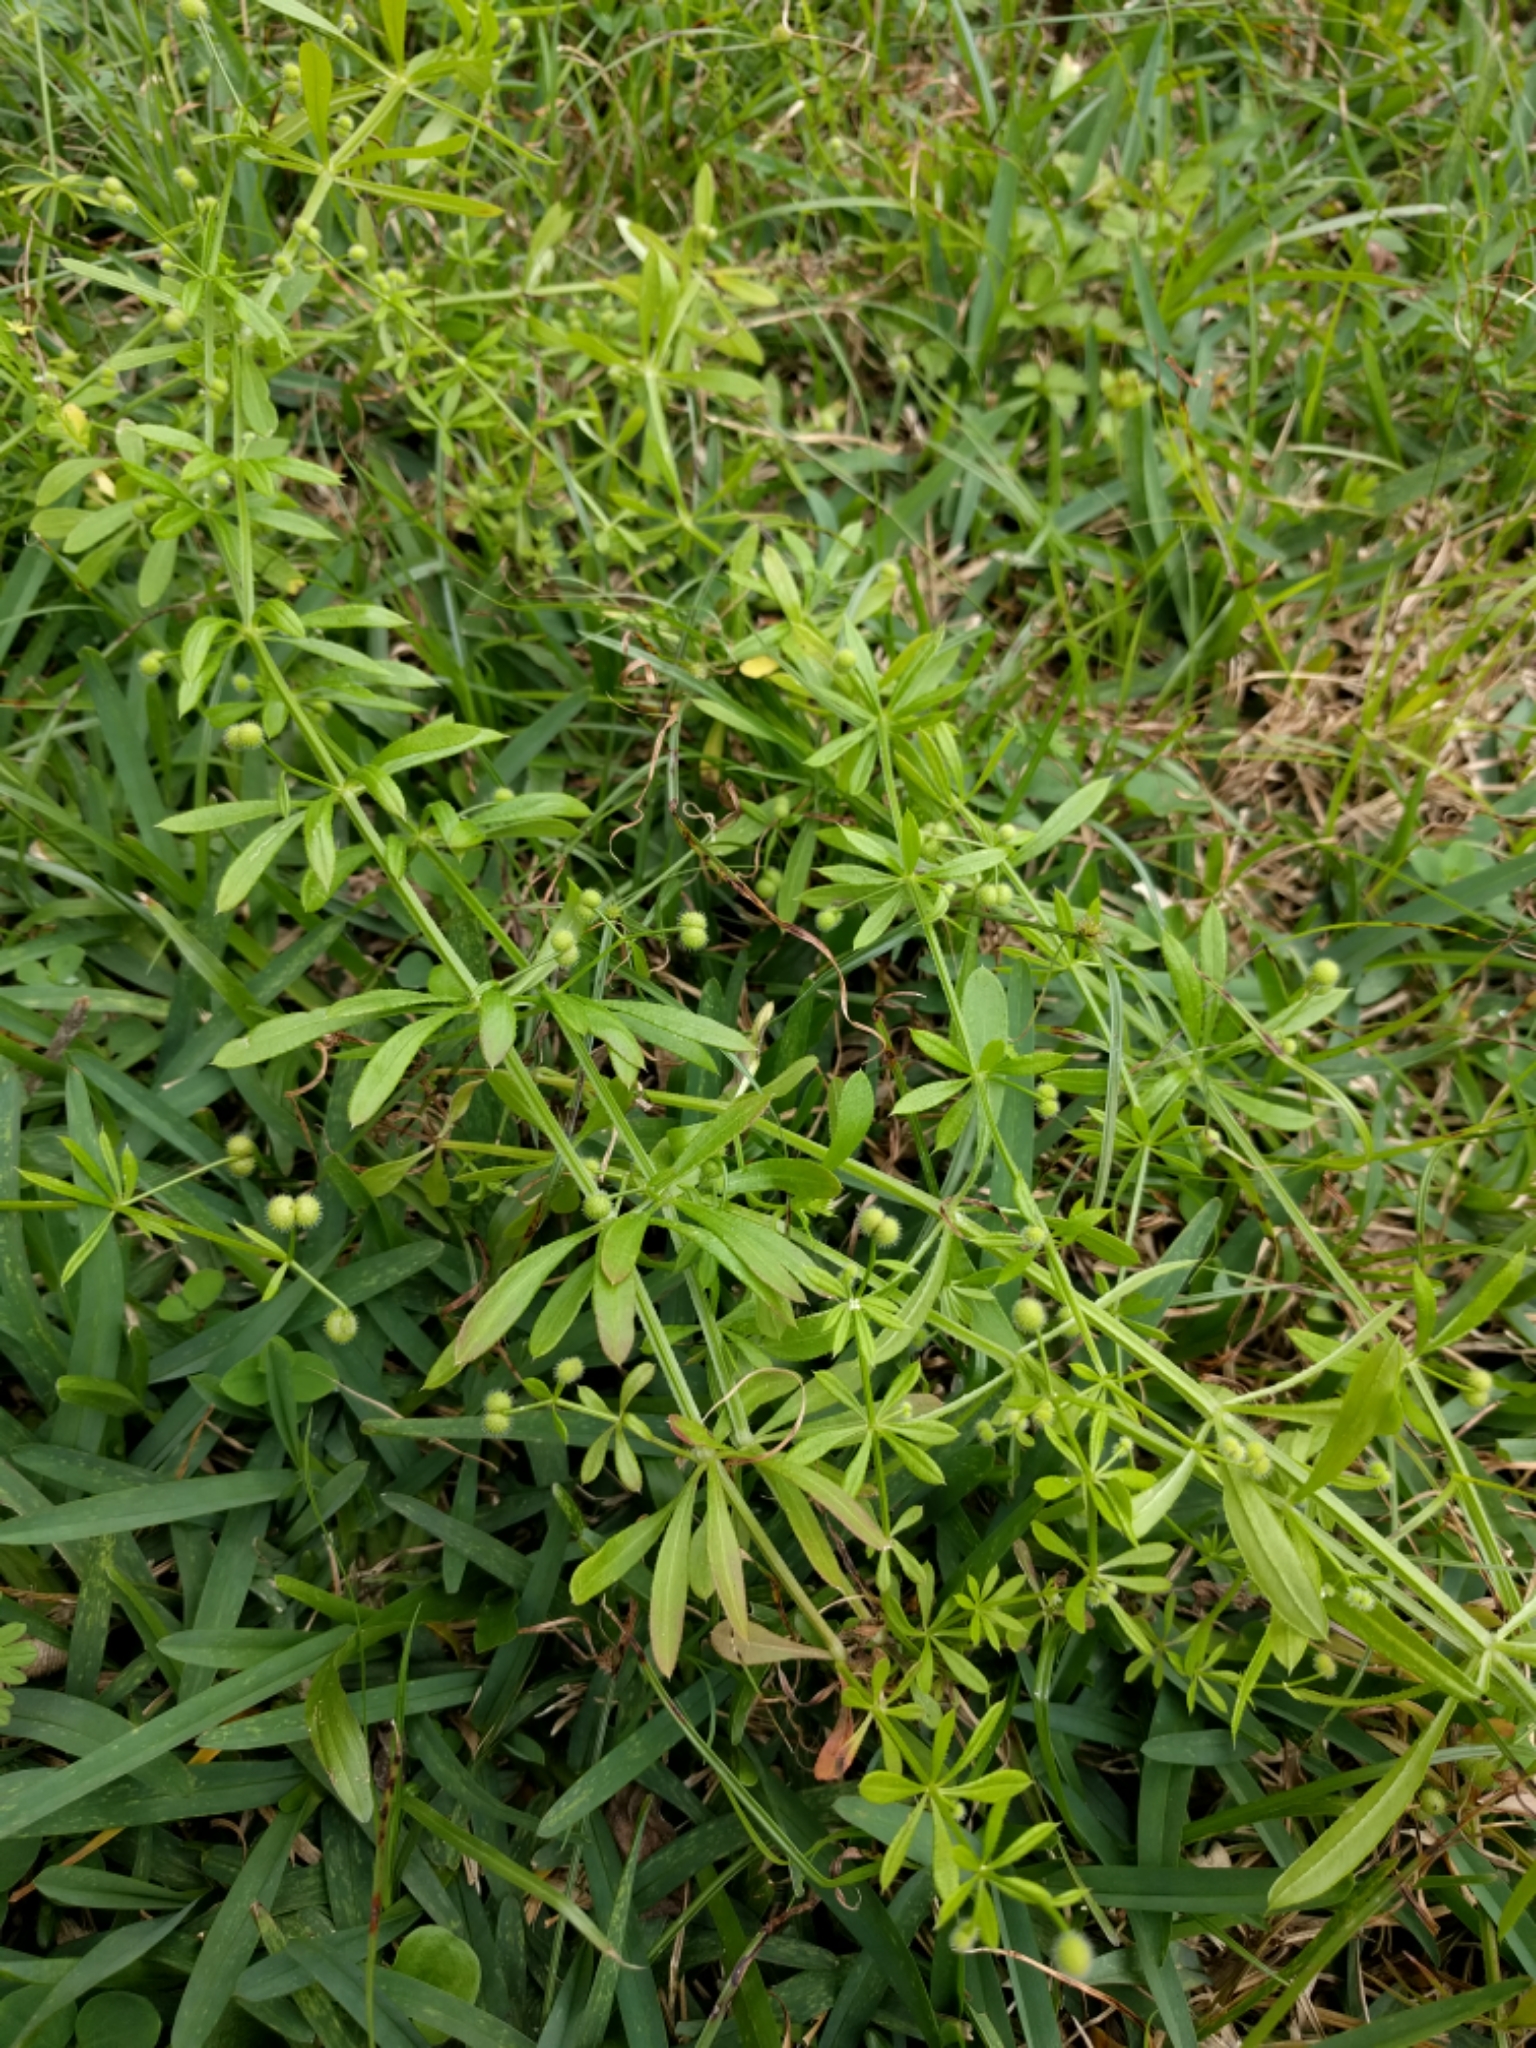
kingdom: Plantae
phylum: Tracheophyta
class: Magnoliopsida
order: Gentianales
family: Rubiaceae
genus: Galium
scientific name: Galium aparine
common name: Cleavers
